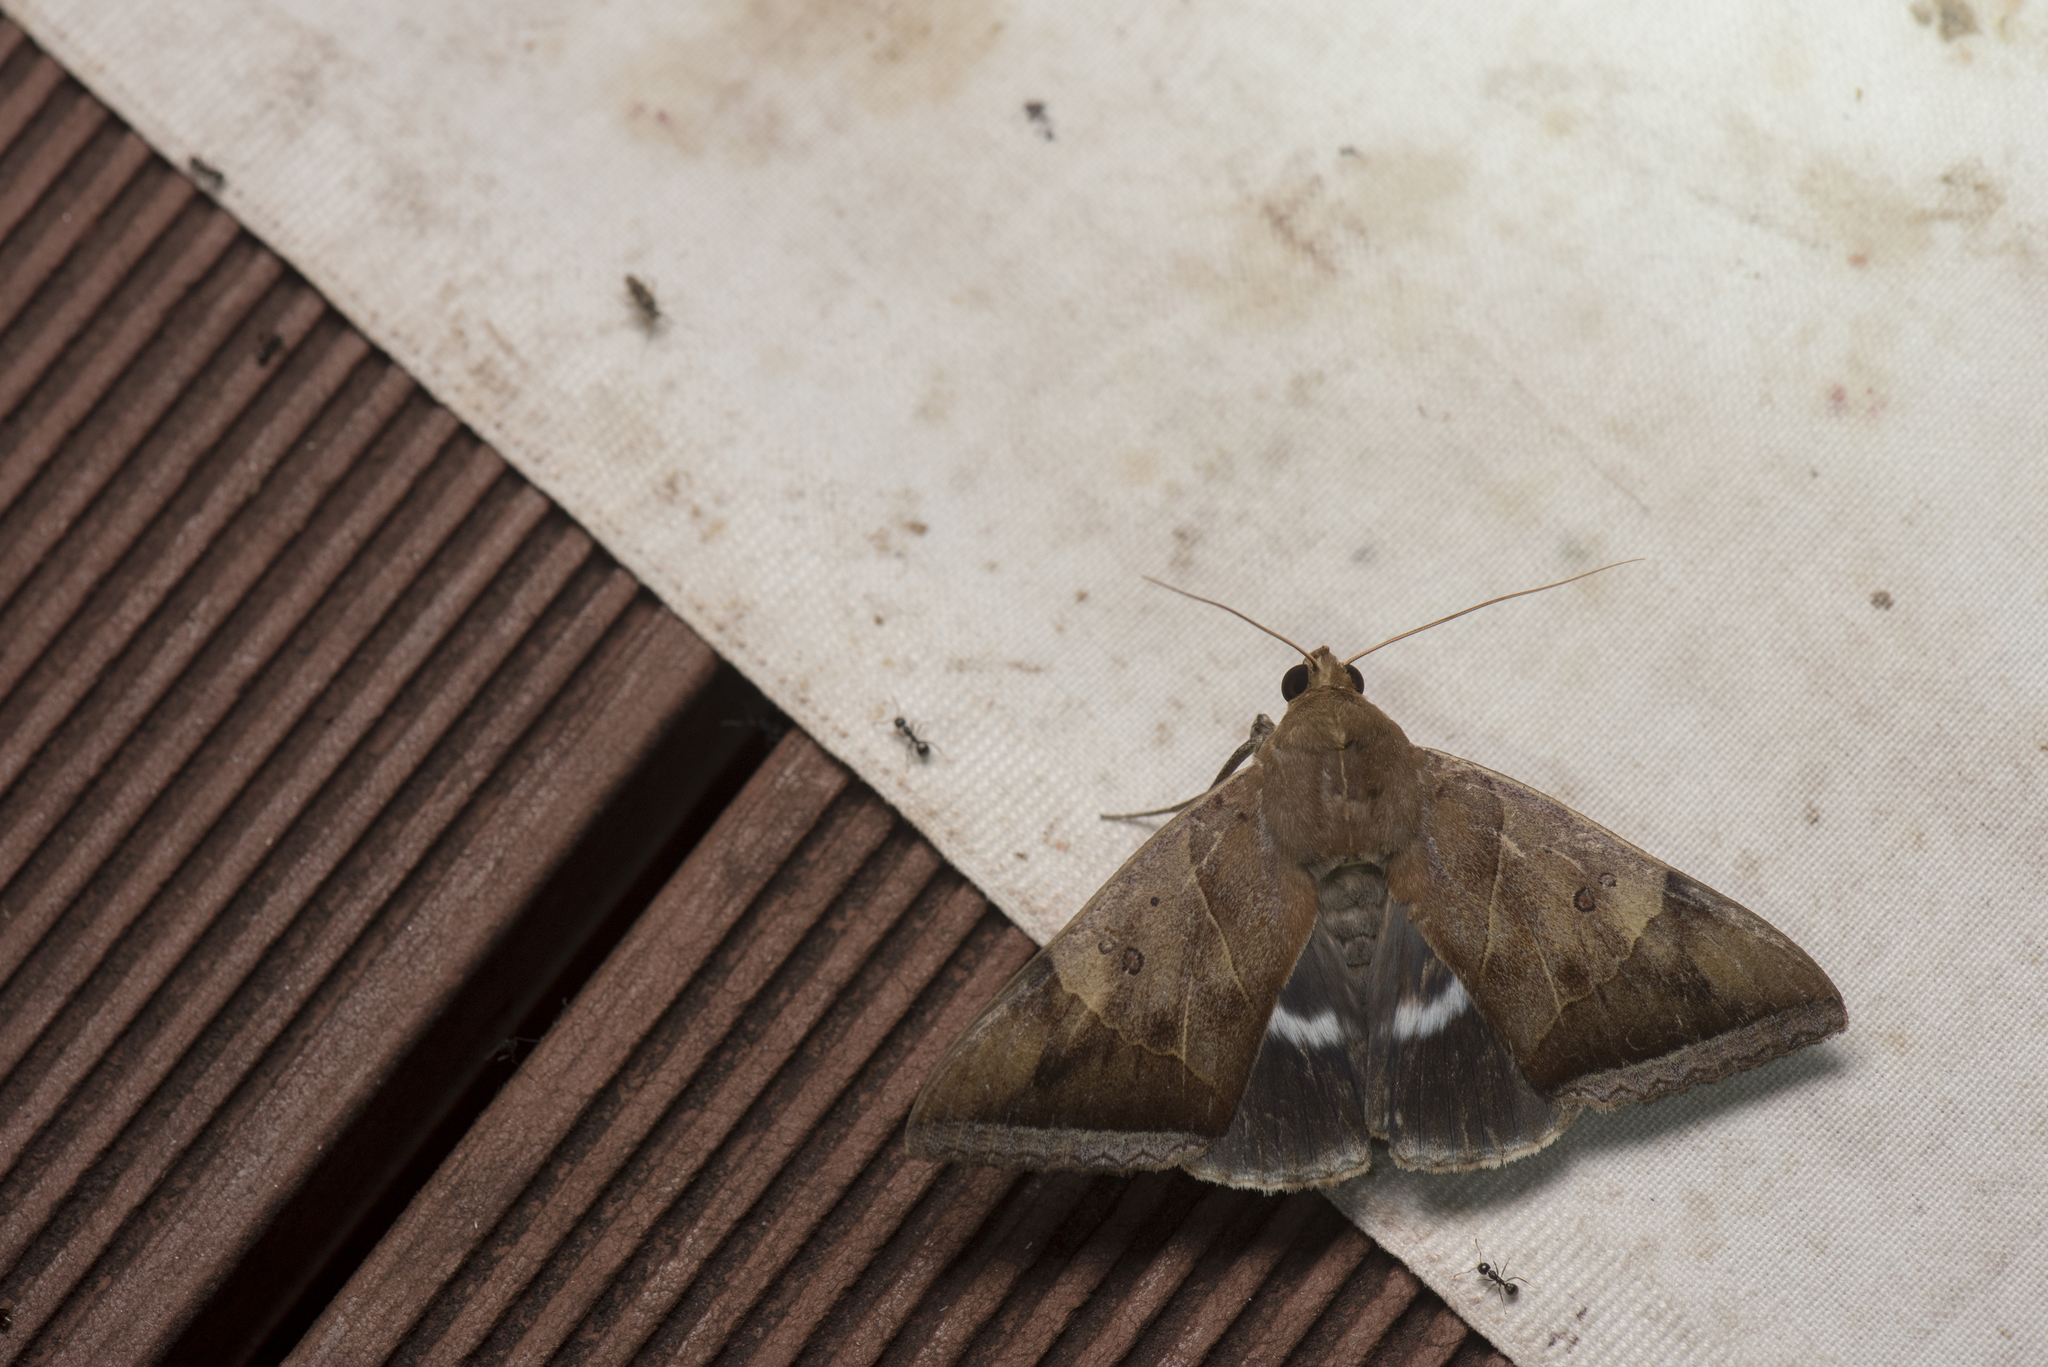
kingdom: Animalia
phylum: Arthropoda
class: Insecta
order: Lepidoptera
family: Erebidae
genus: Artena
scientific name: Artena dotata
